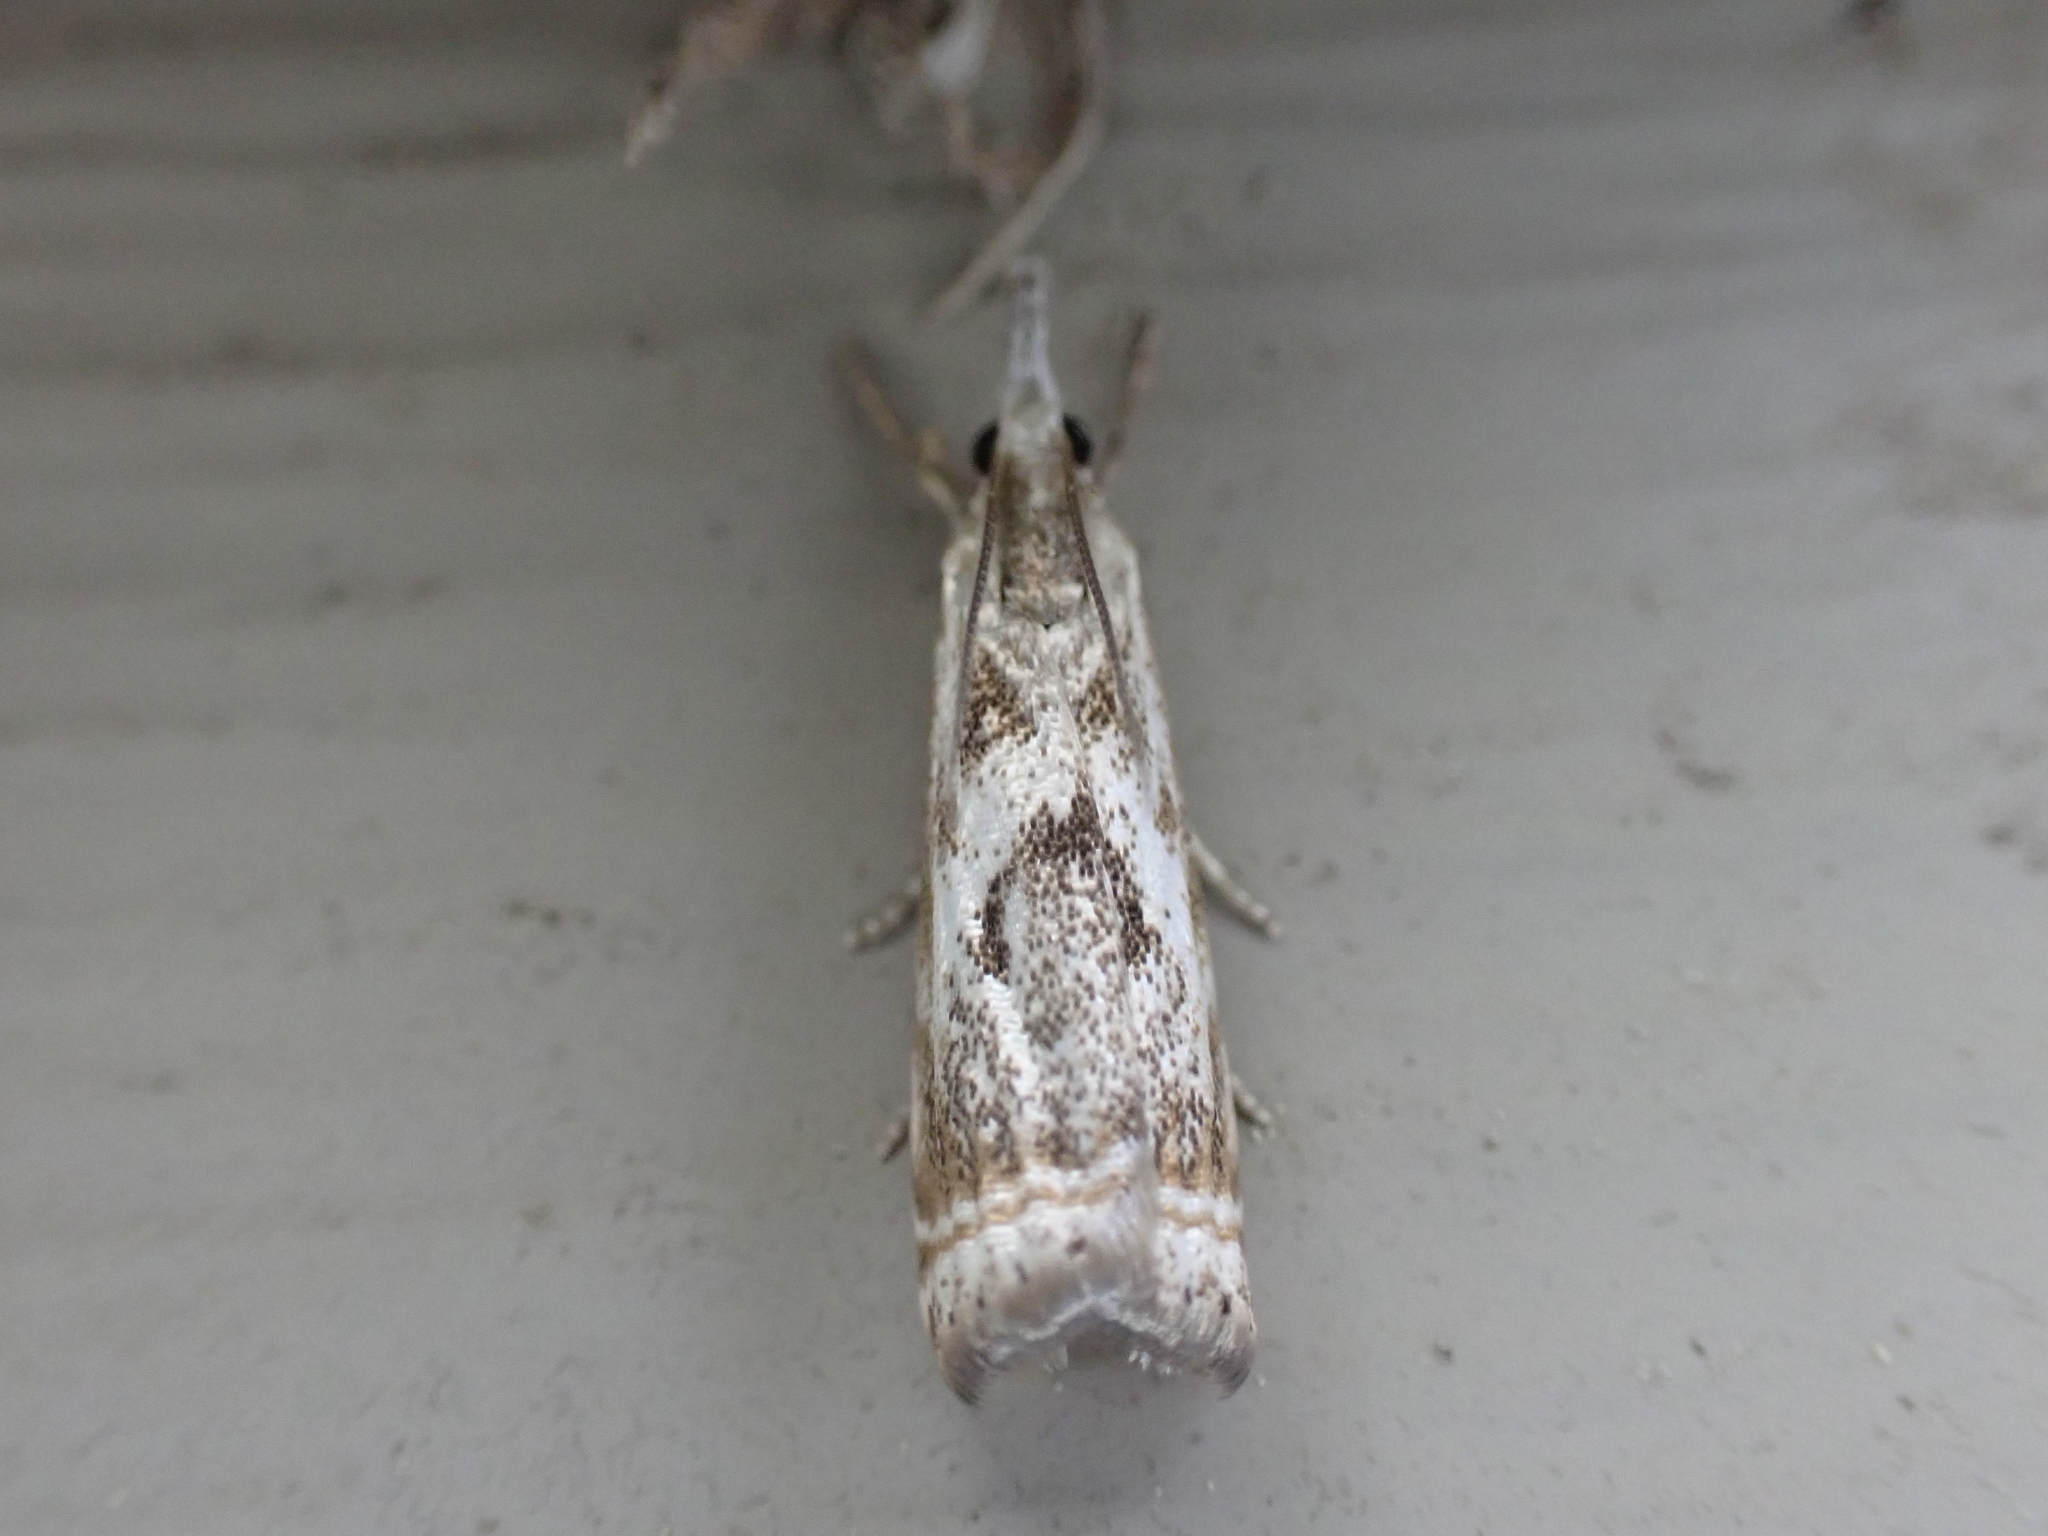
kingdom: Animalia
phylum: Arthropoda
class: Insecta
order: Lepidoptera
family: Crambidae
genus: Microcrambus
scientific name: Microcrambus elegans
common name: Elegant grass-veneer
